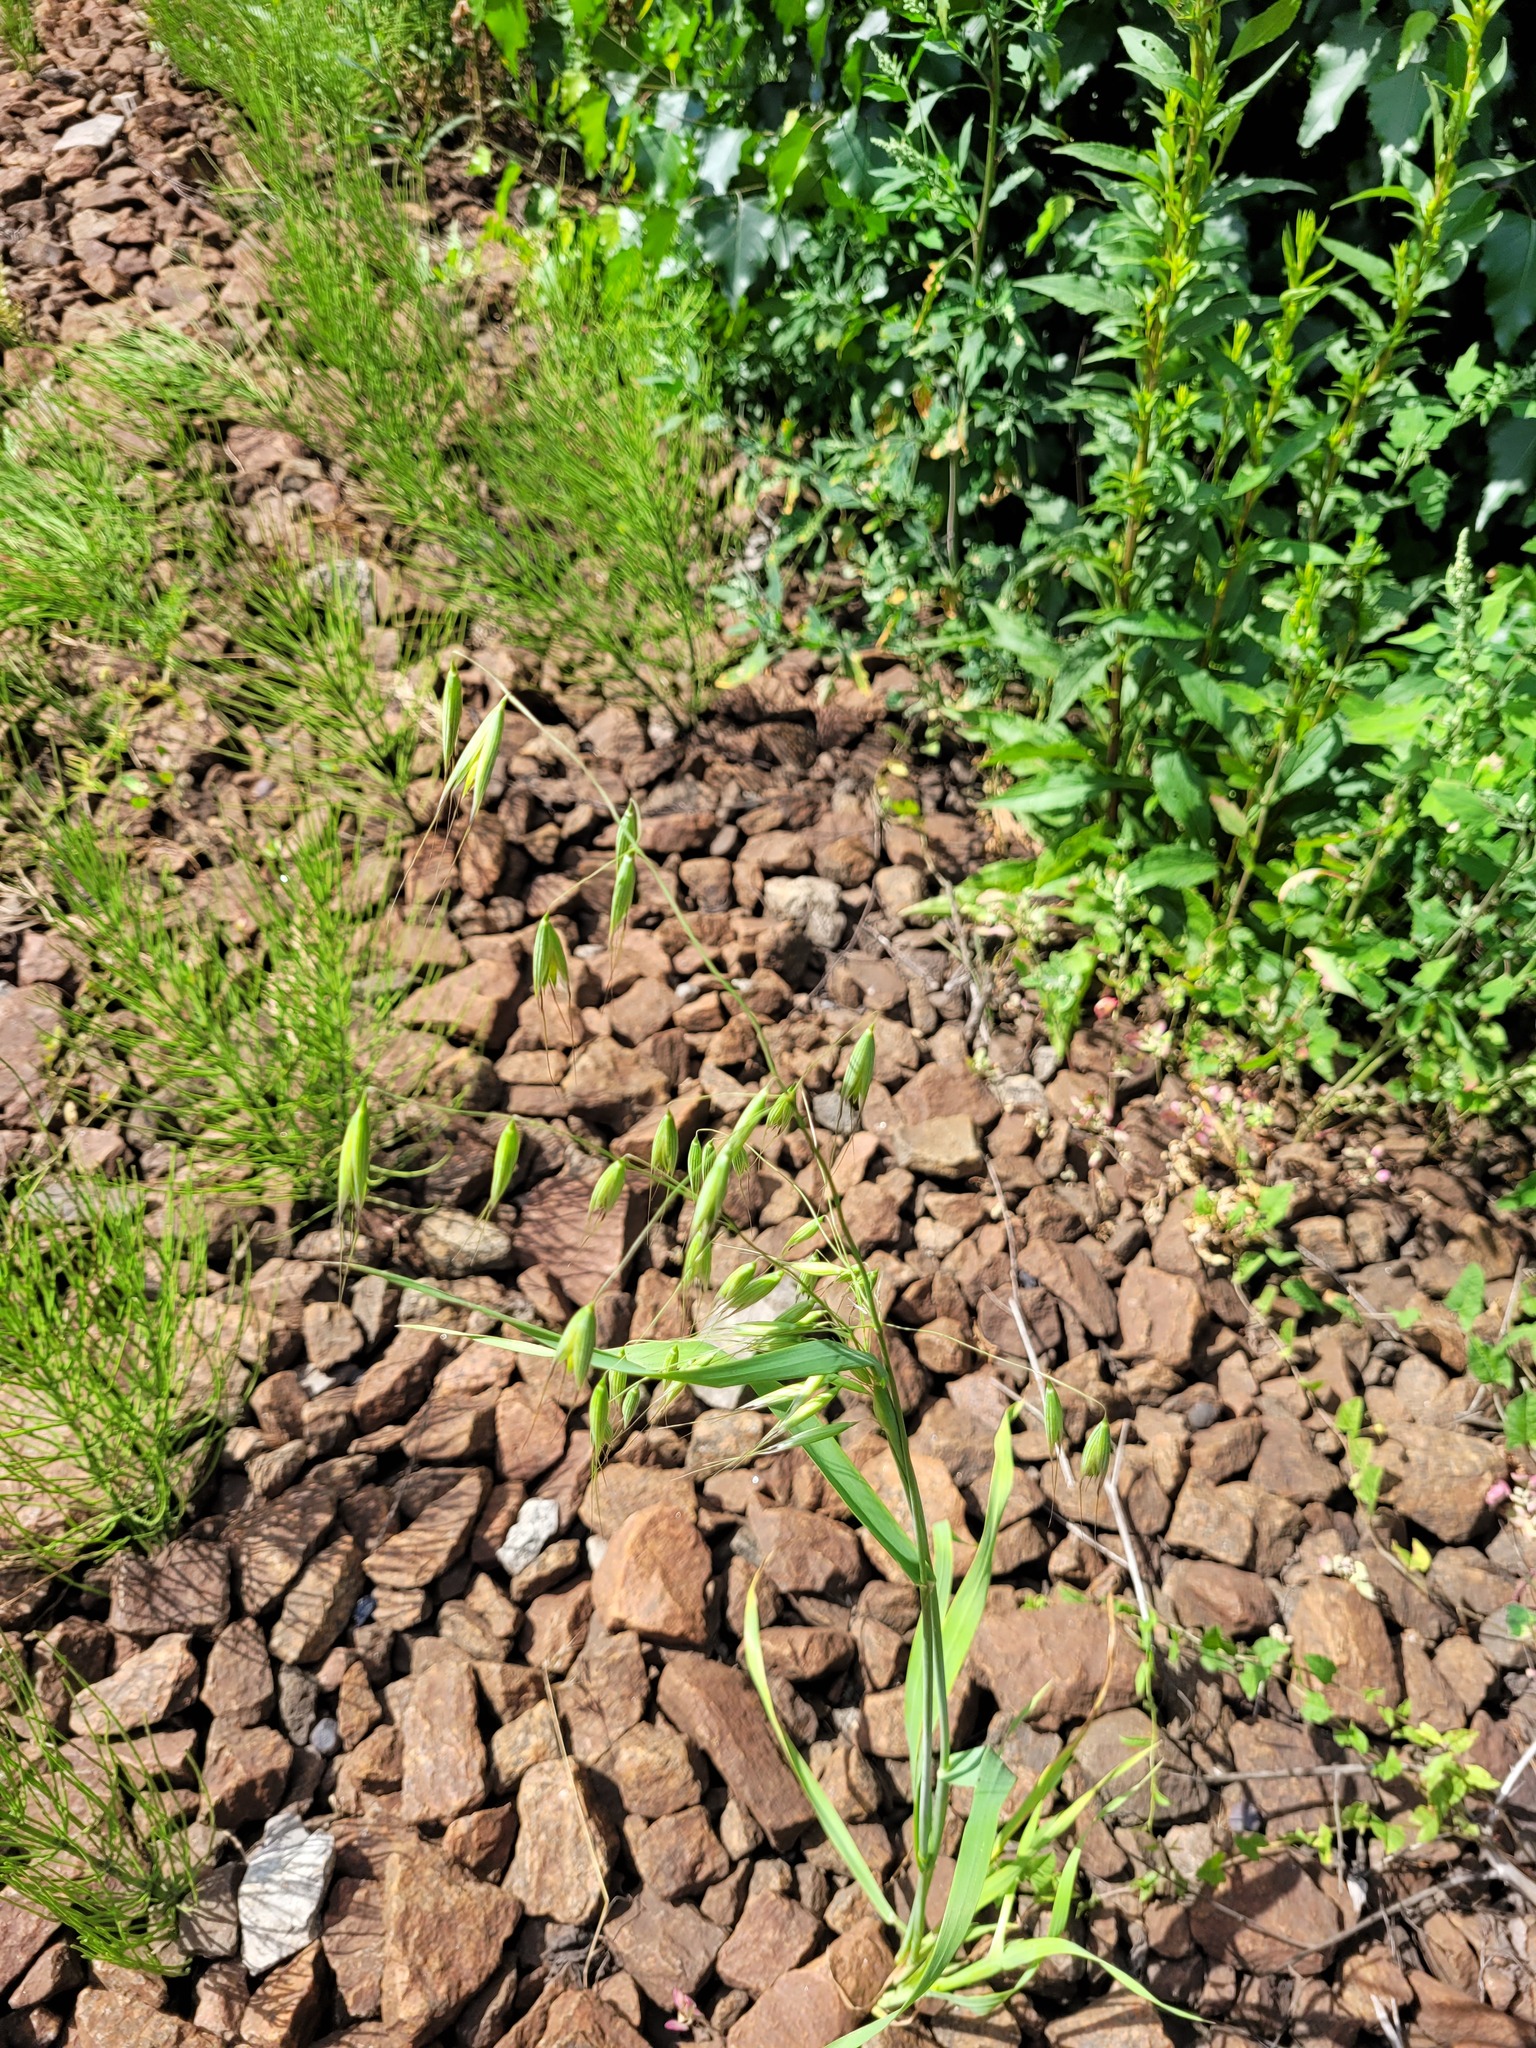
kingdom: Plantae
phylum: Tracheophyta
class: Liliopsida
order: Poales
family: Poaceae
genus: Avena
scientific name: Avena fatua
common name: Wild oat
